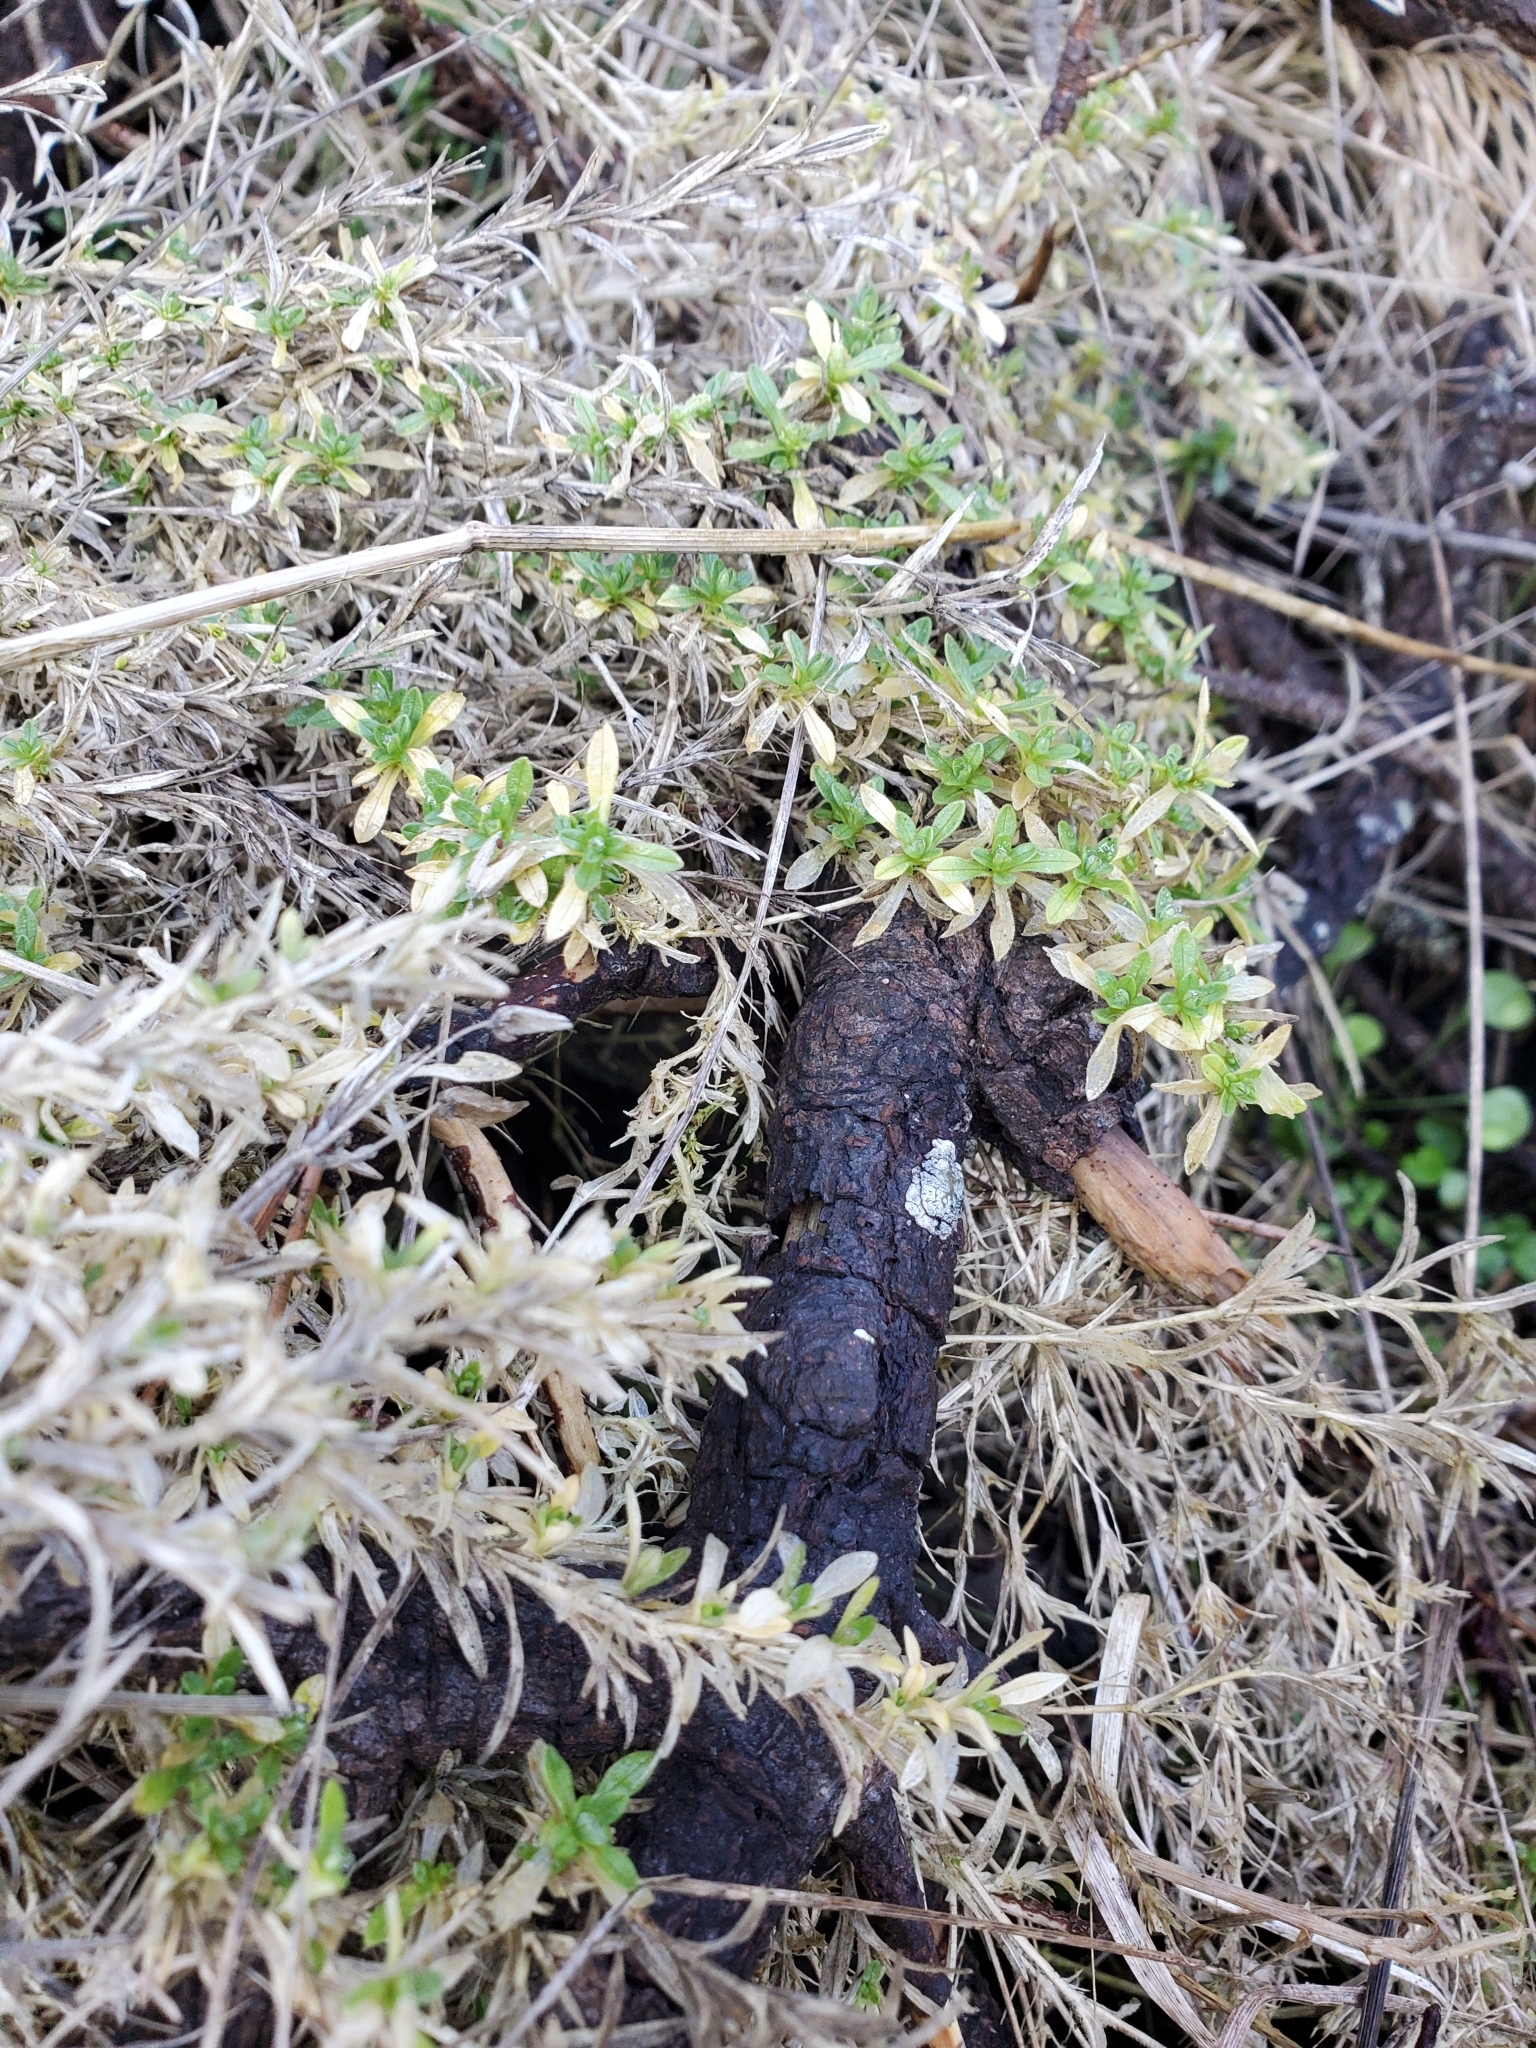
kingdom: Plantae
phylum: Tracheophyta
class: Magnoliopsida
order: Caryophyllales
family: Caryophyllaceae
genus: Cerastium
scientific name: Cerastium arvense
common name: Field mouse-ear
